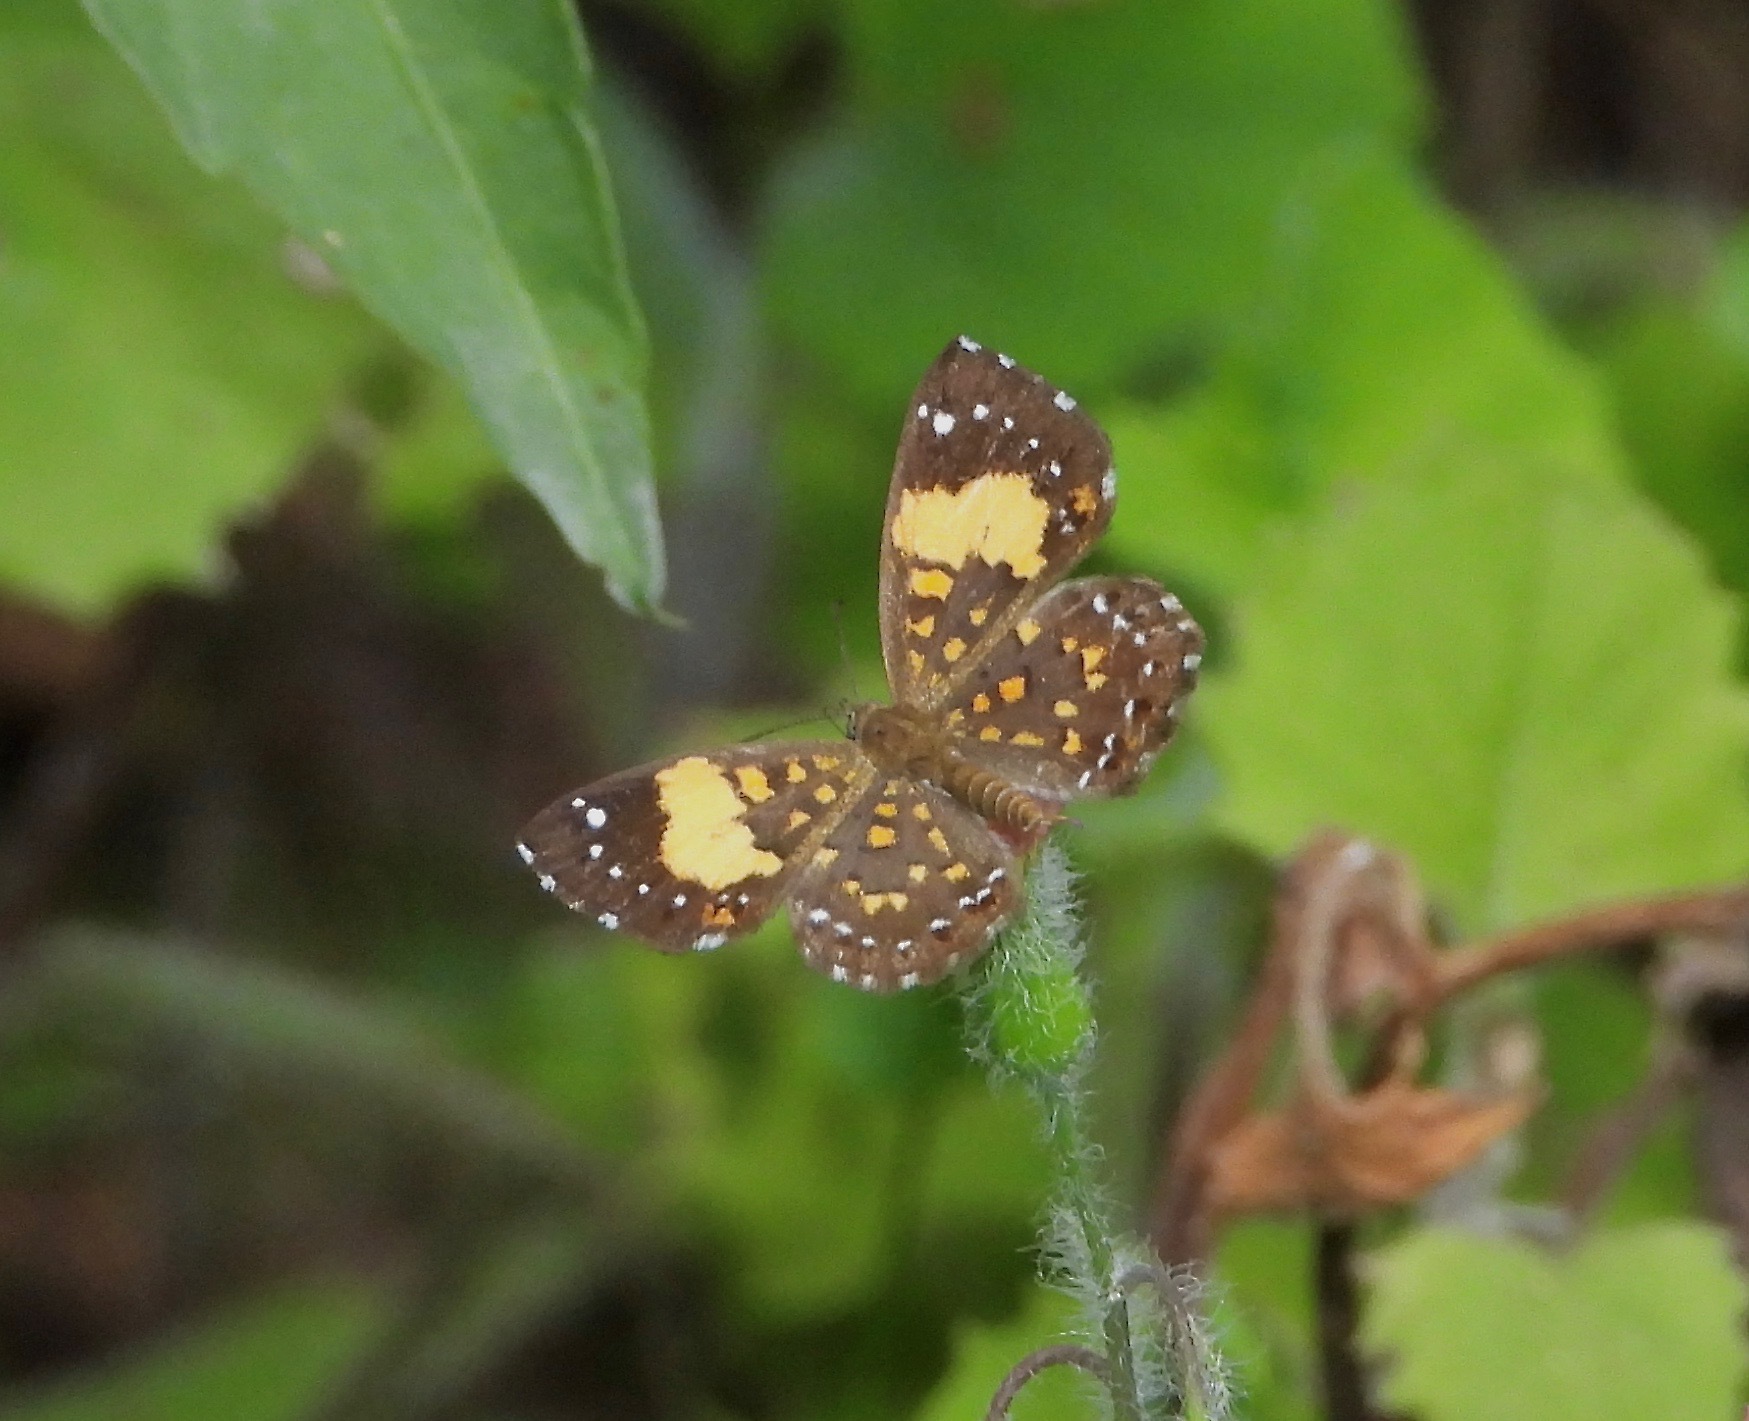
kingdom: Animalia
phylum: Arthropoda
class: Insecta
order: Lepidoptera
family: Riodinidae
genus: Polystichtis
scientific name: Polystichtis emylius
